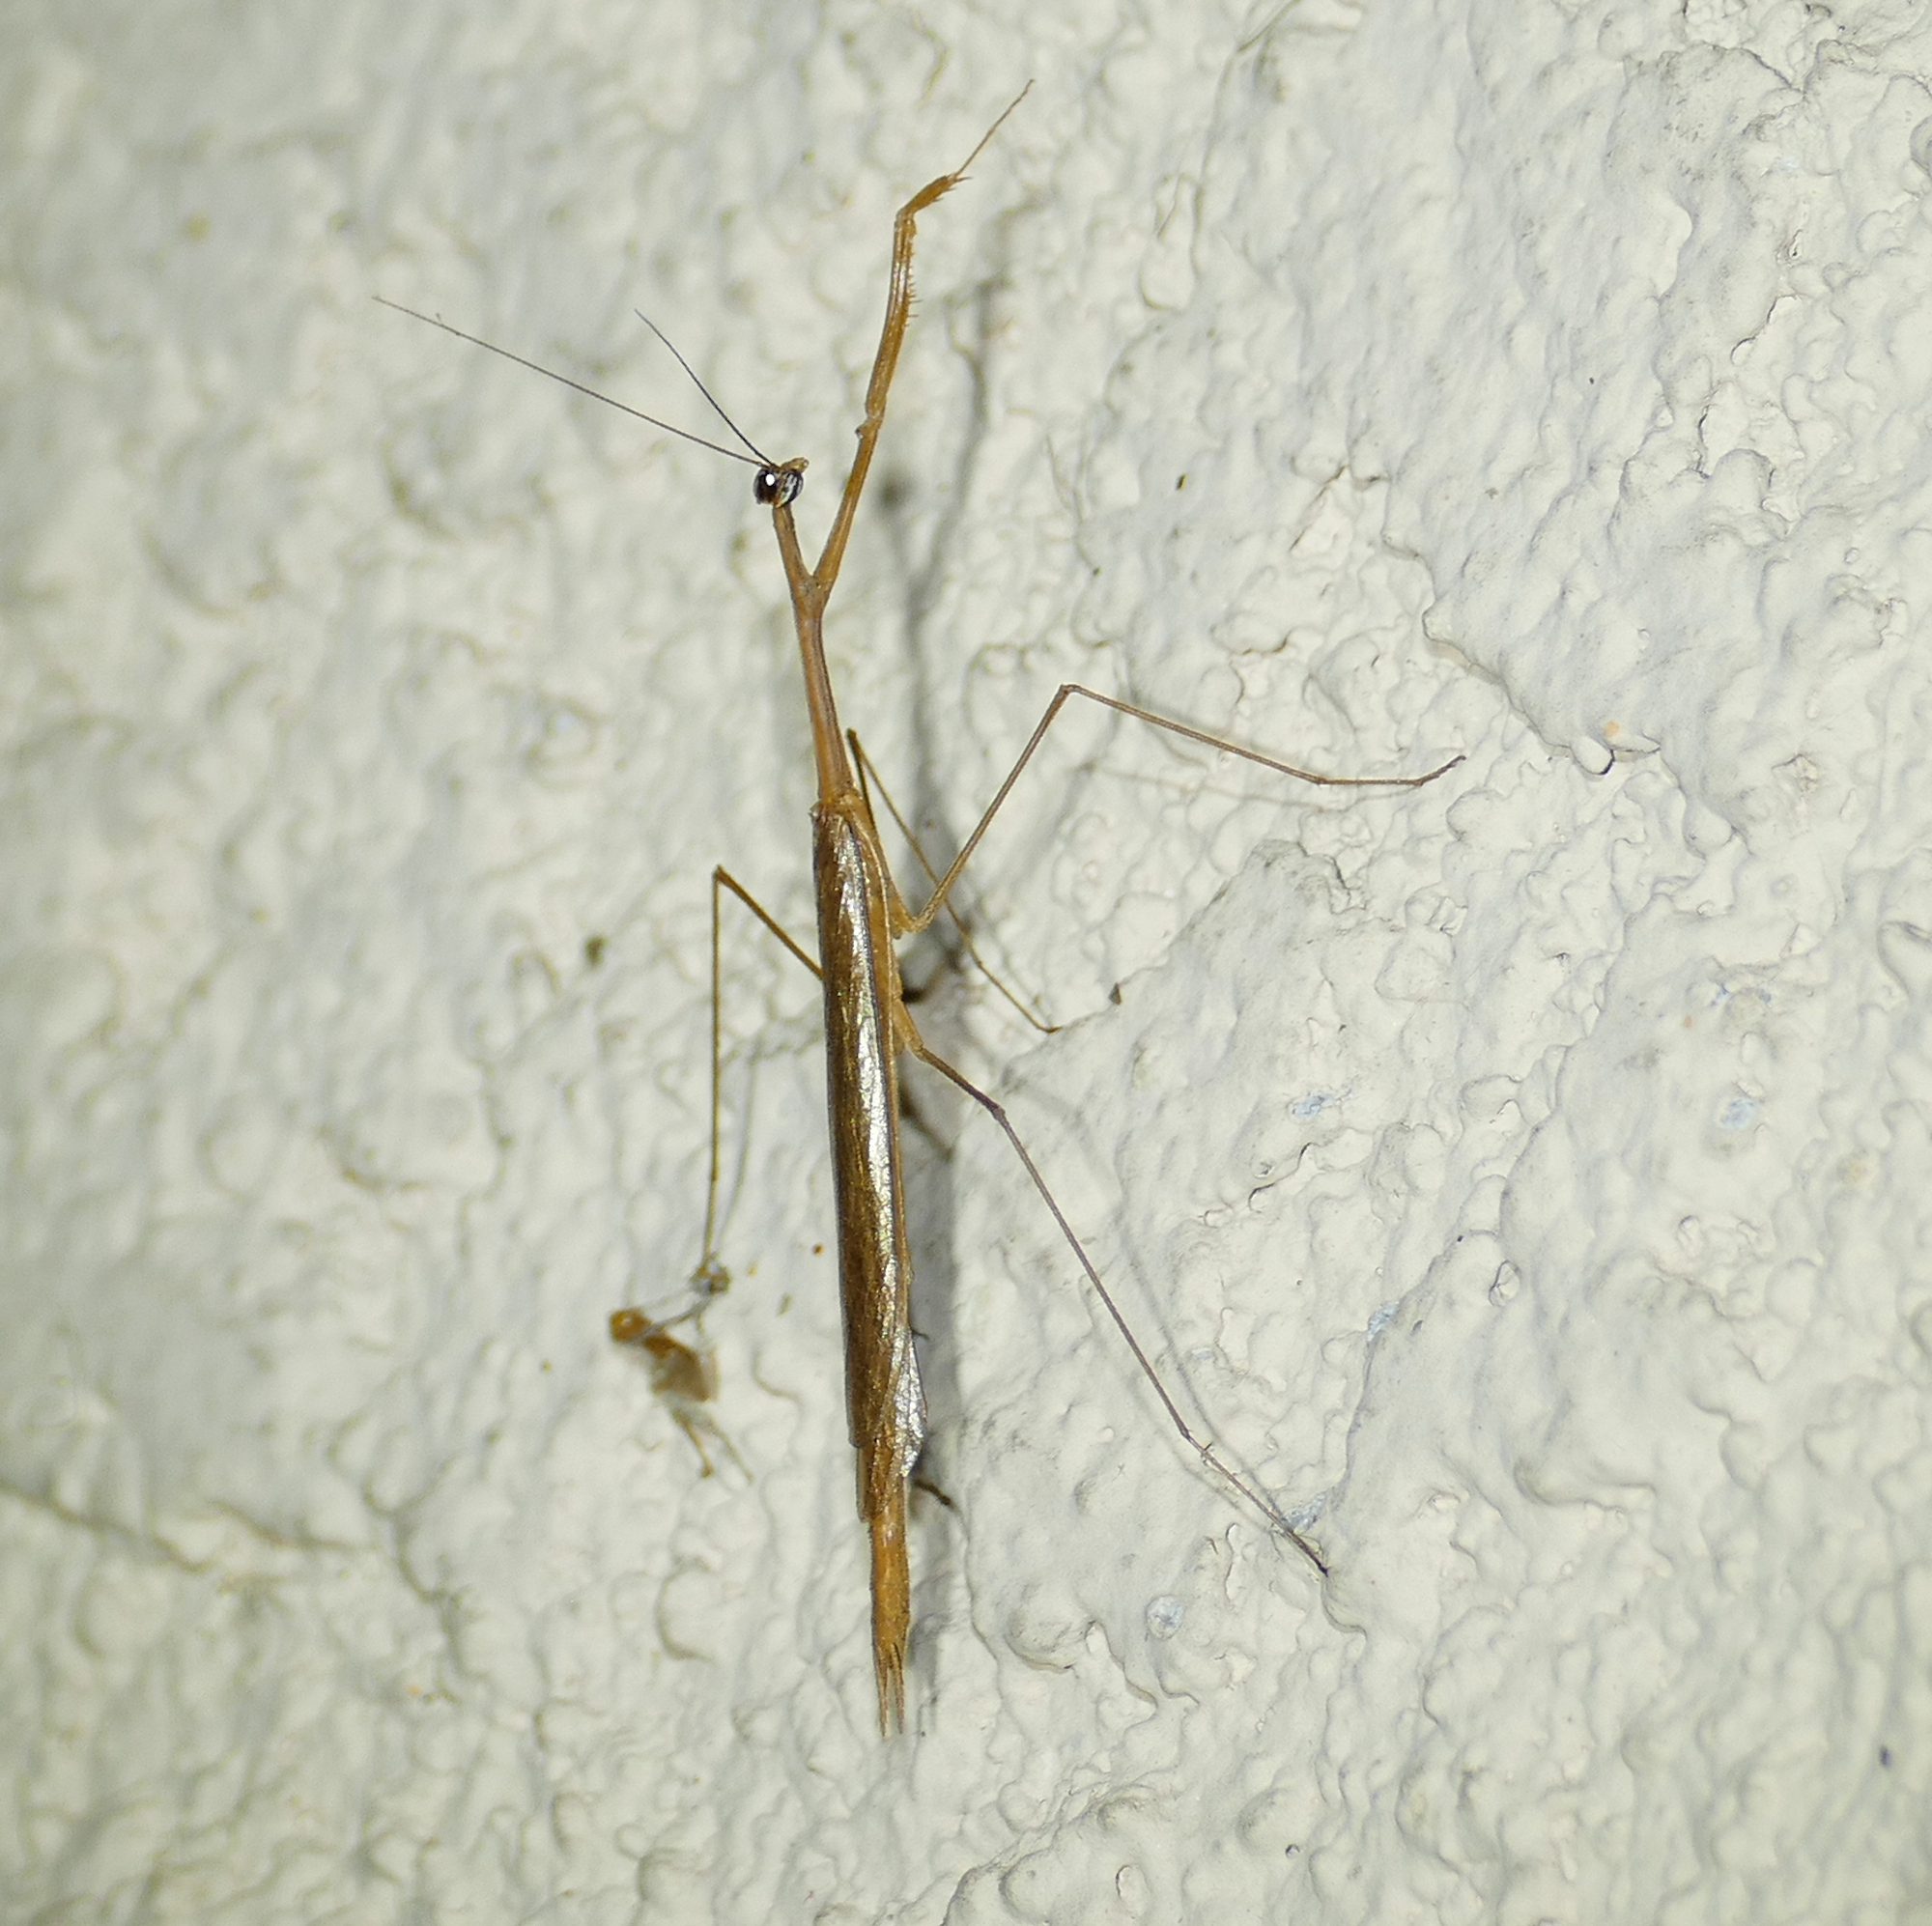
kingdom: Animalia
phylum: Arthropoda
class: Insecta
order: Mantodea
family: Thespidae
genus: Bistanta
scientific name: Bistanta herema
